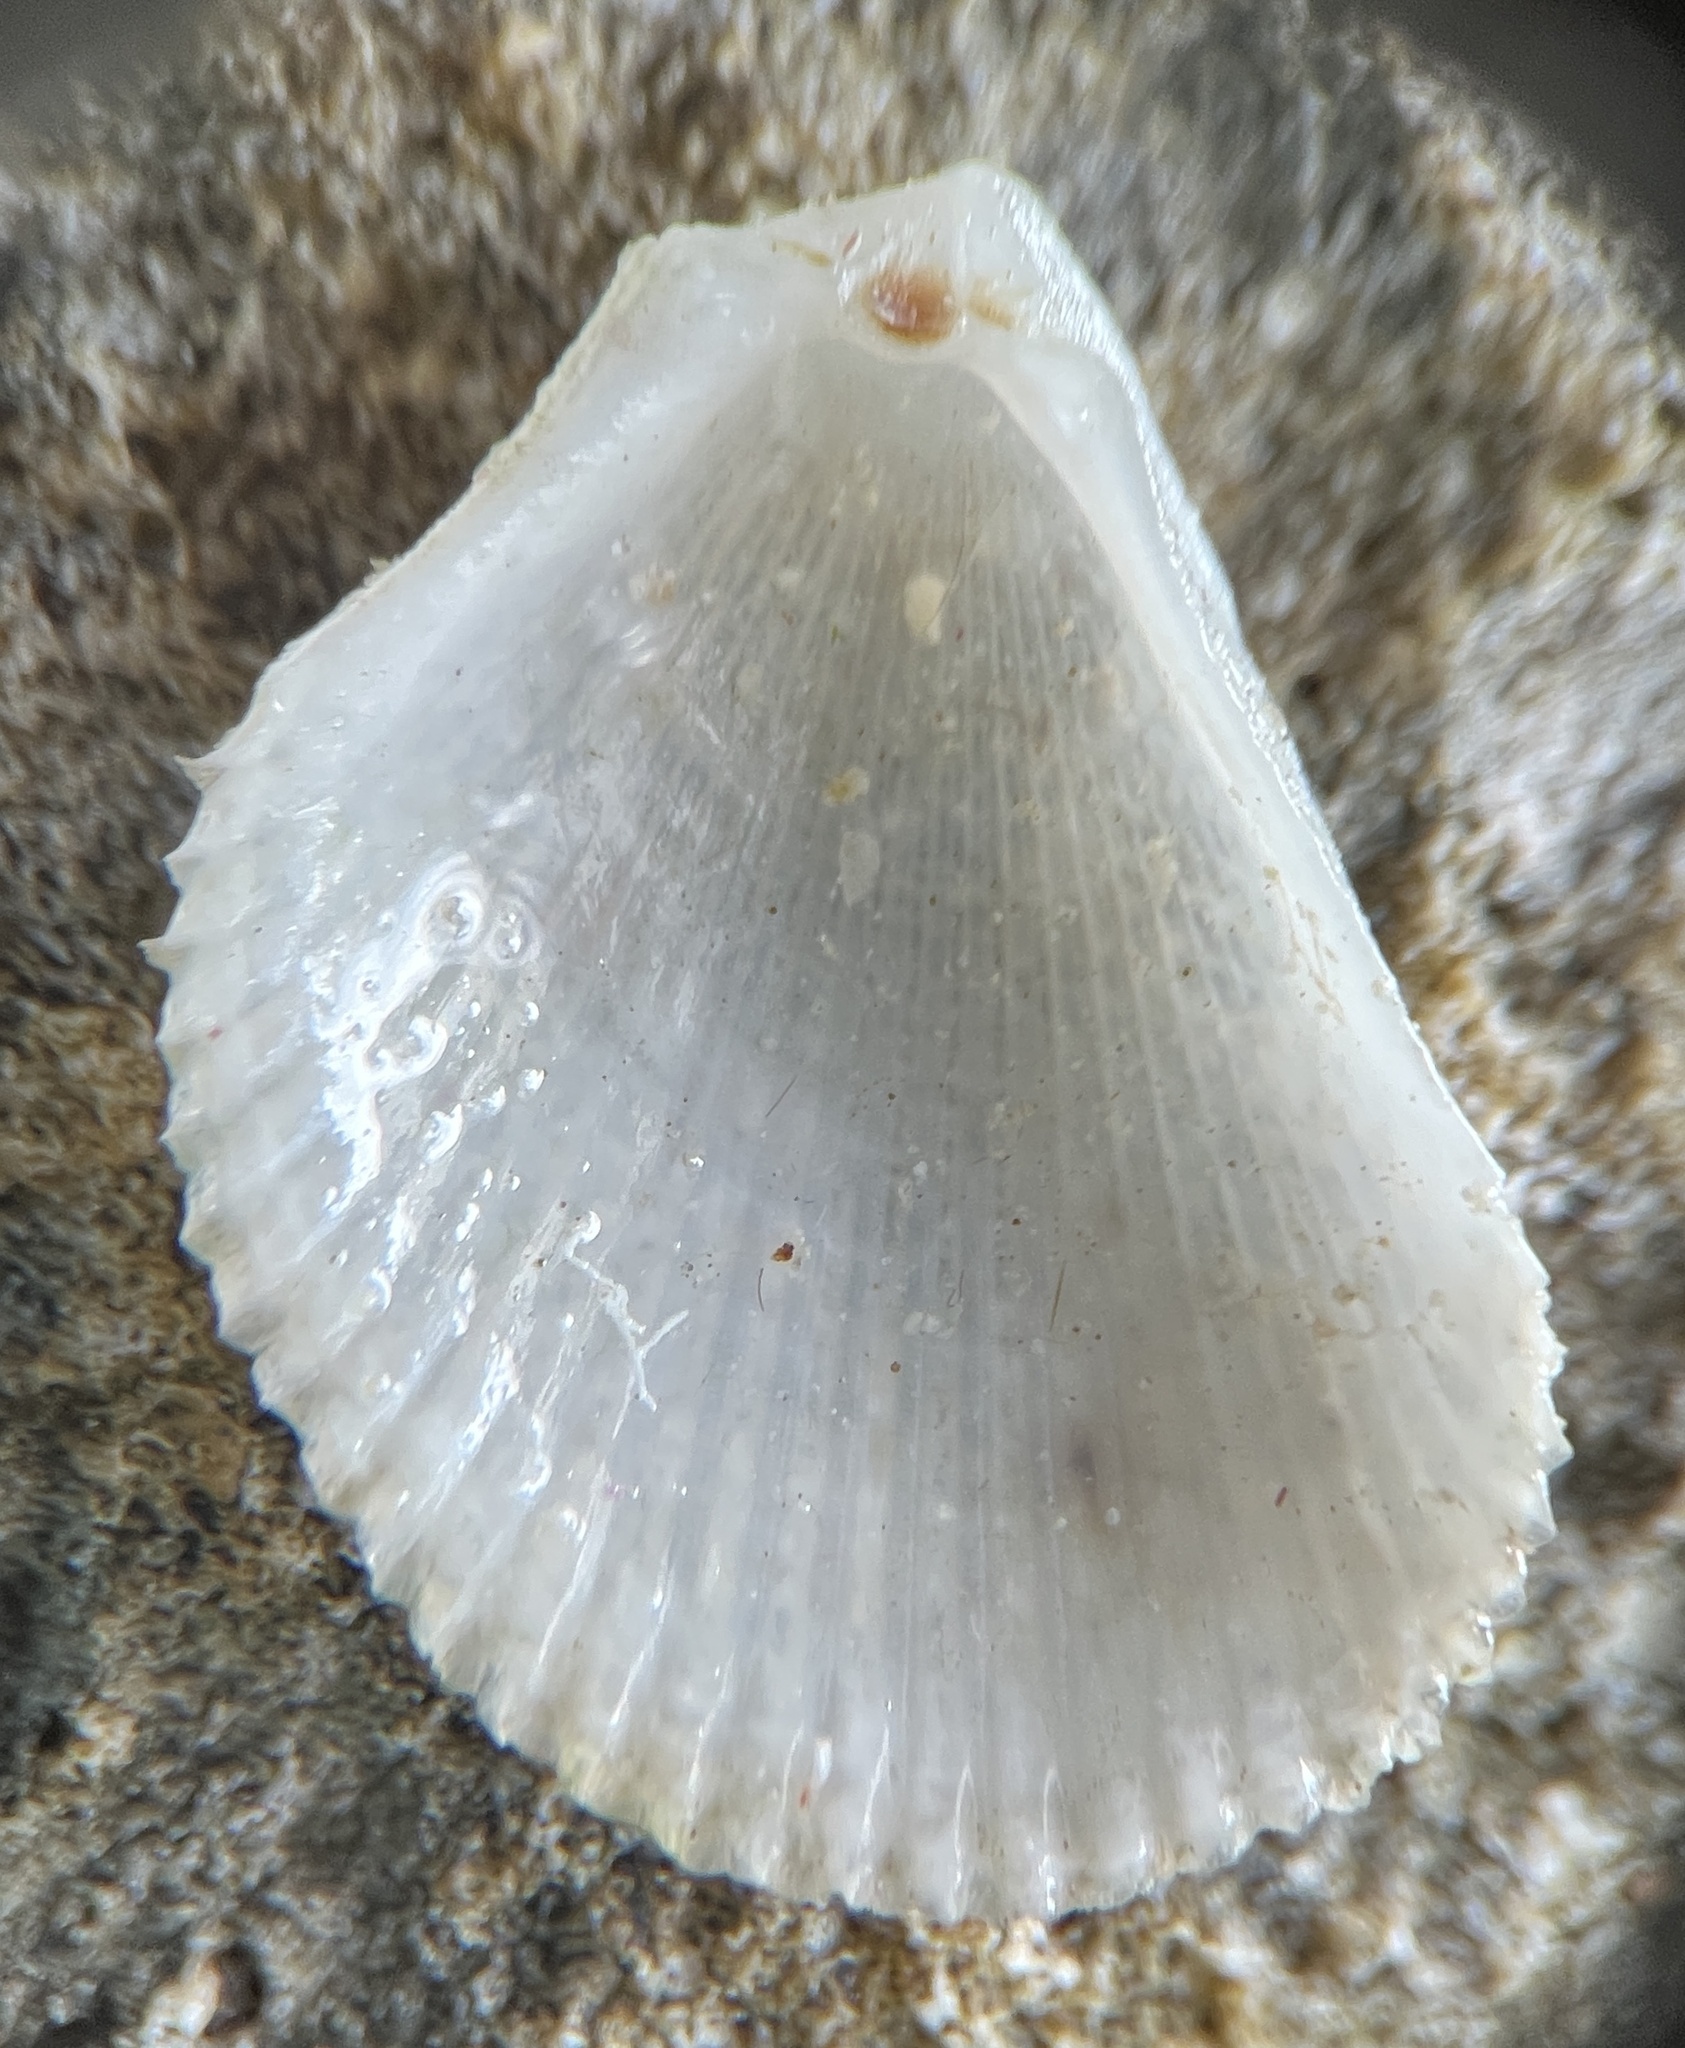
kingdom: Animalia
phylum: Mollusca
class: Bivalvia
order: Limida
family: Limidae
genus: Lima
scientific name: Lima caribaea
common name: Spiny file clam
